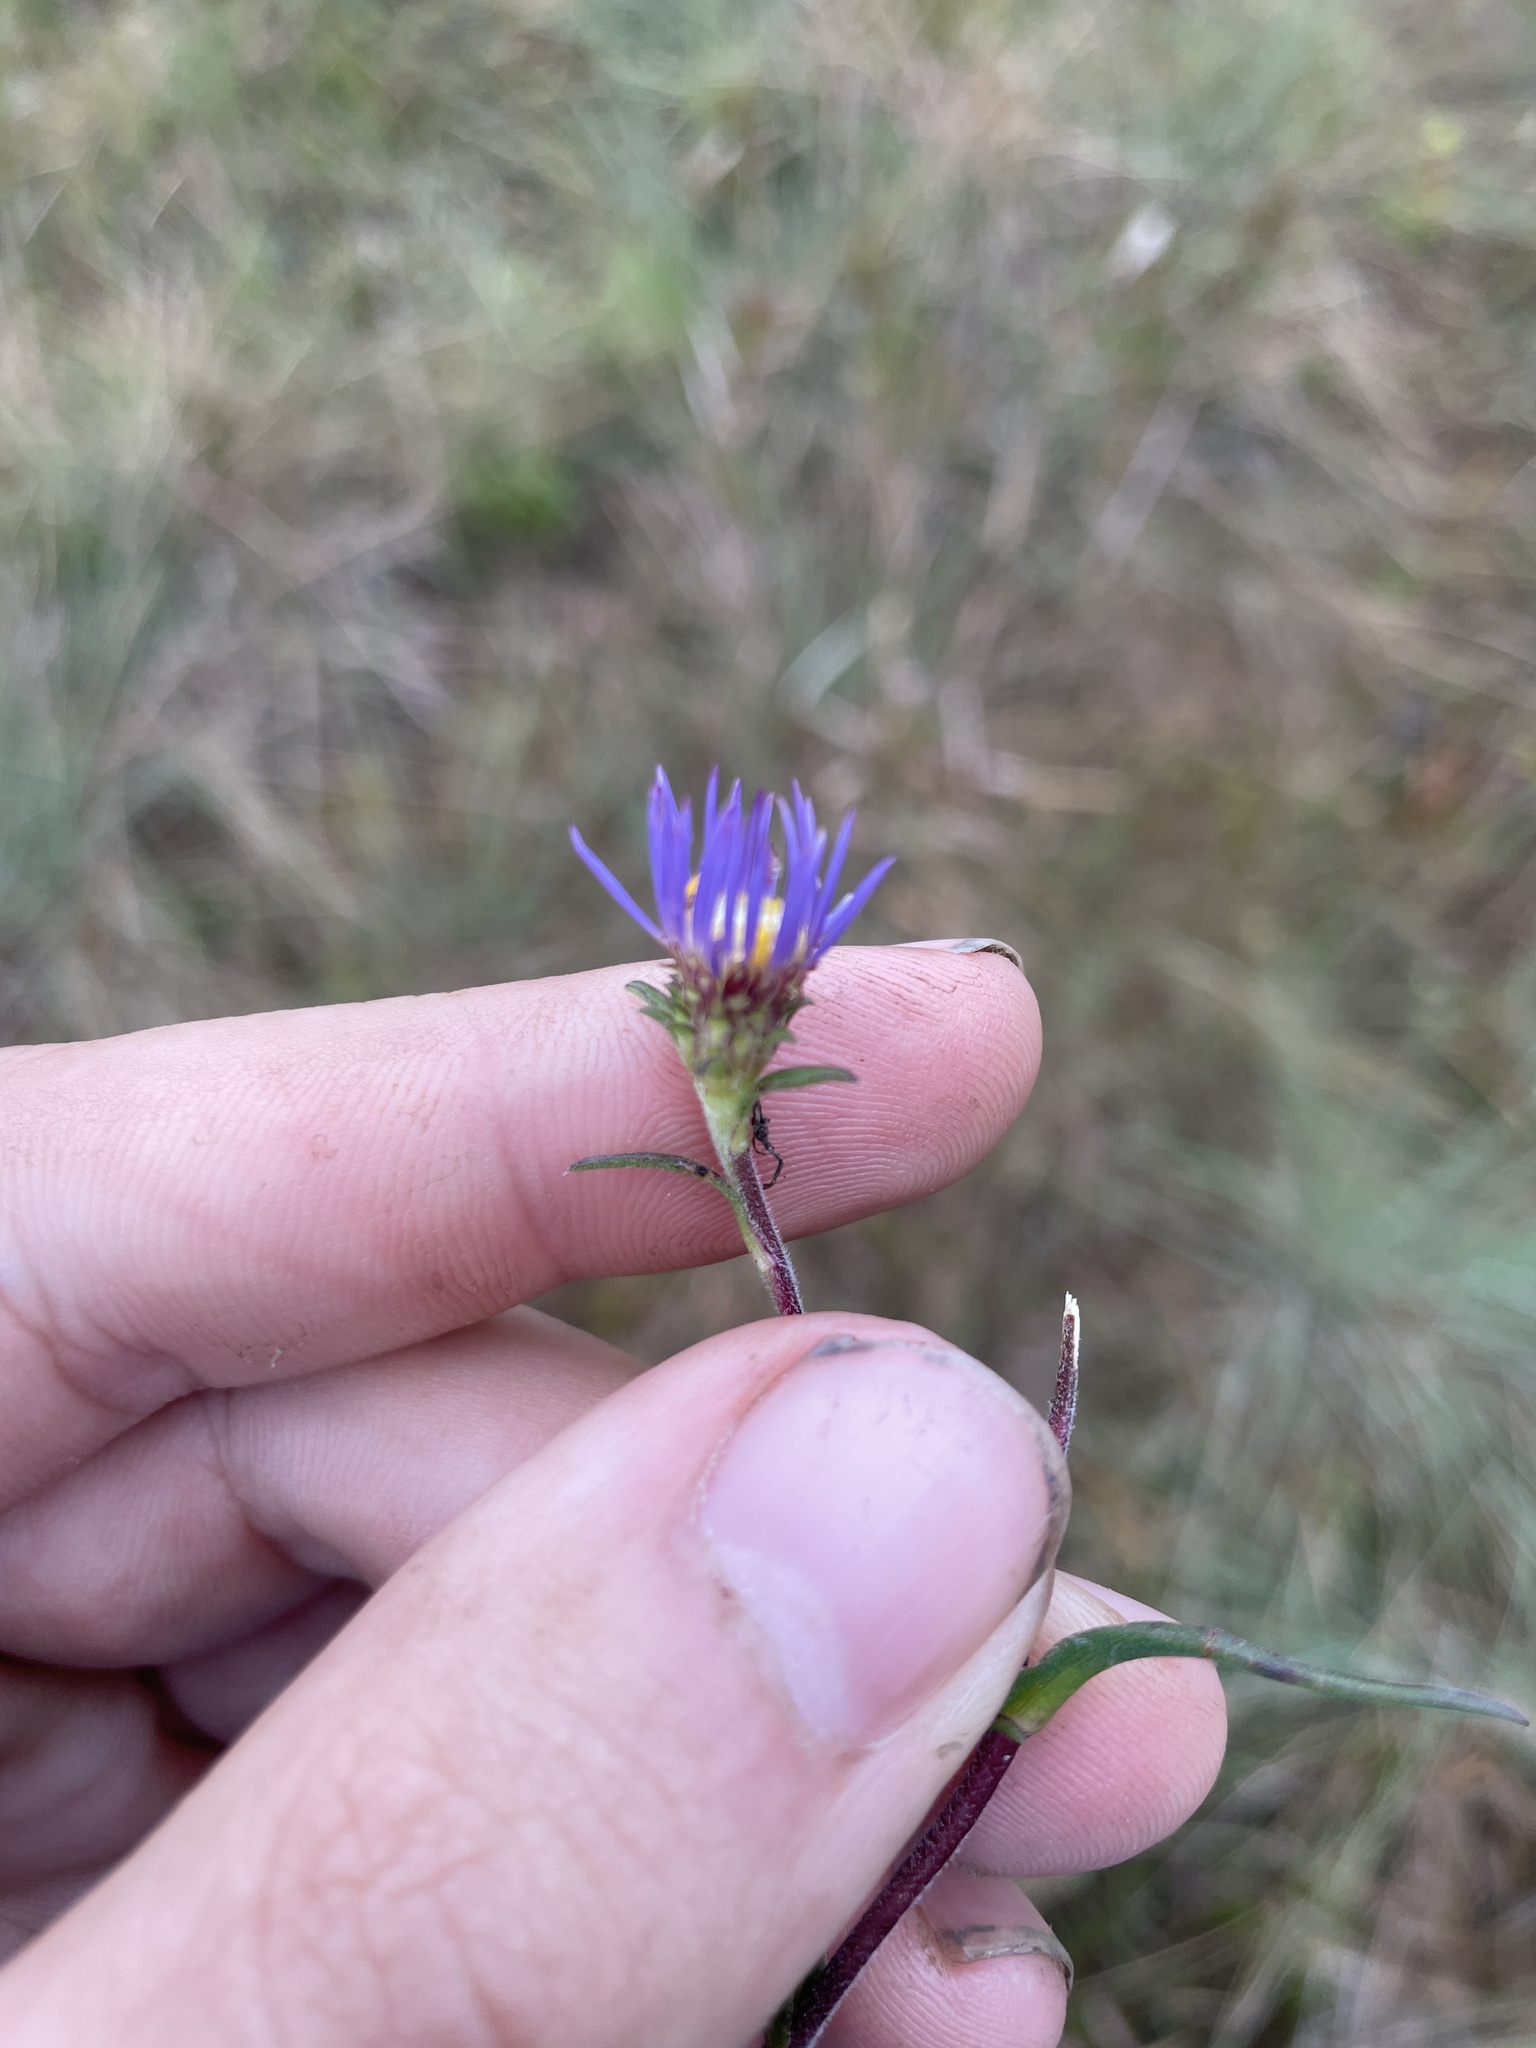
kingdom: Plantae
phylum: Tracheophyta
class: Magnoliopsida
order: Asterales
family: Asteraceae
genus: Eurybia
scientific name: Eurybia paludosa
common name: Southern swamp aster
